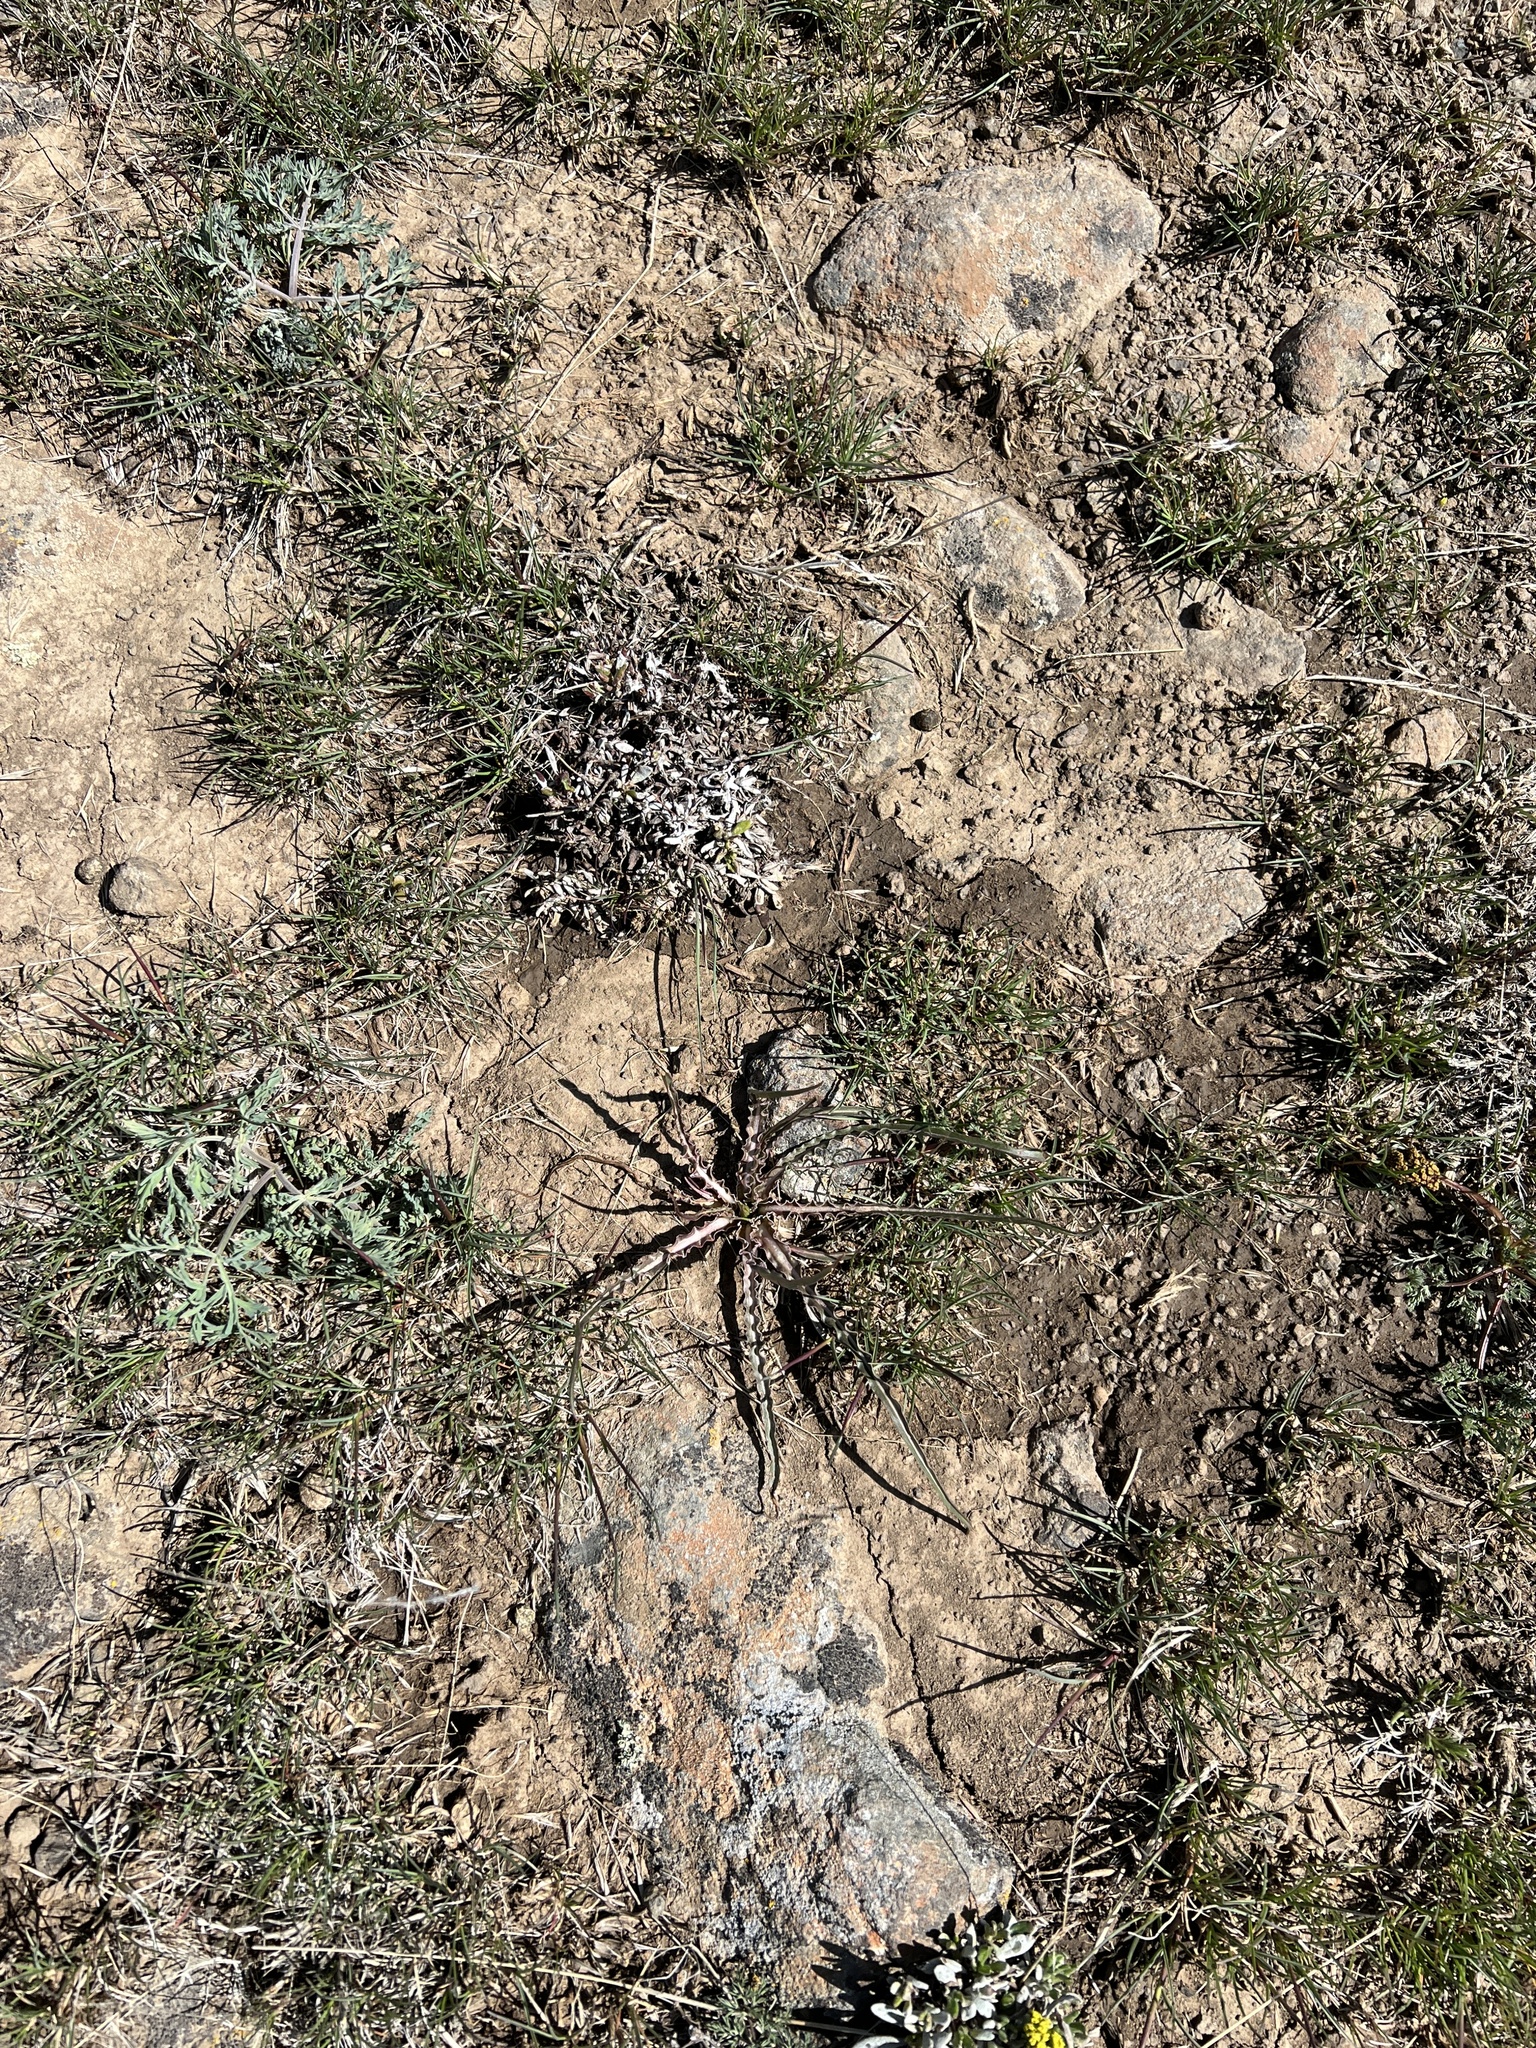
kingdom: Plantae
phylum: Tracheophyta
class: Magnoliopsida
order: Asterales
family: Asteraceae
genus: Microseris
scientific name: Microseris troximoides
